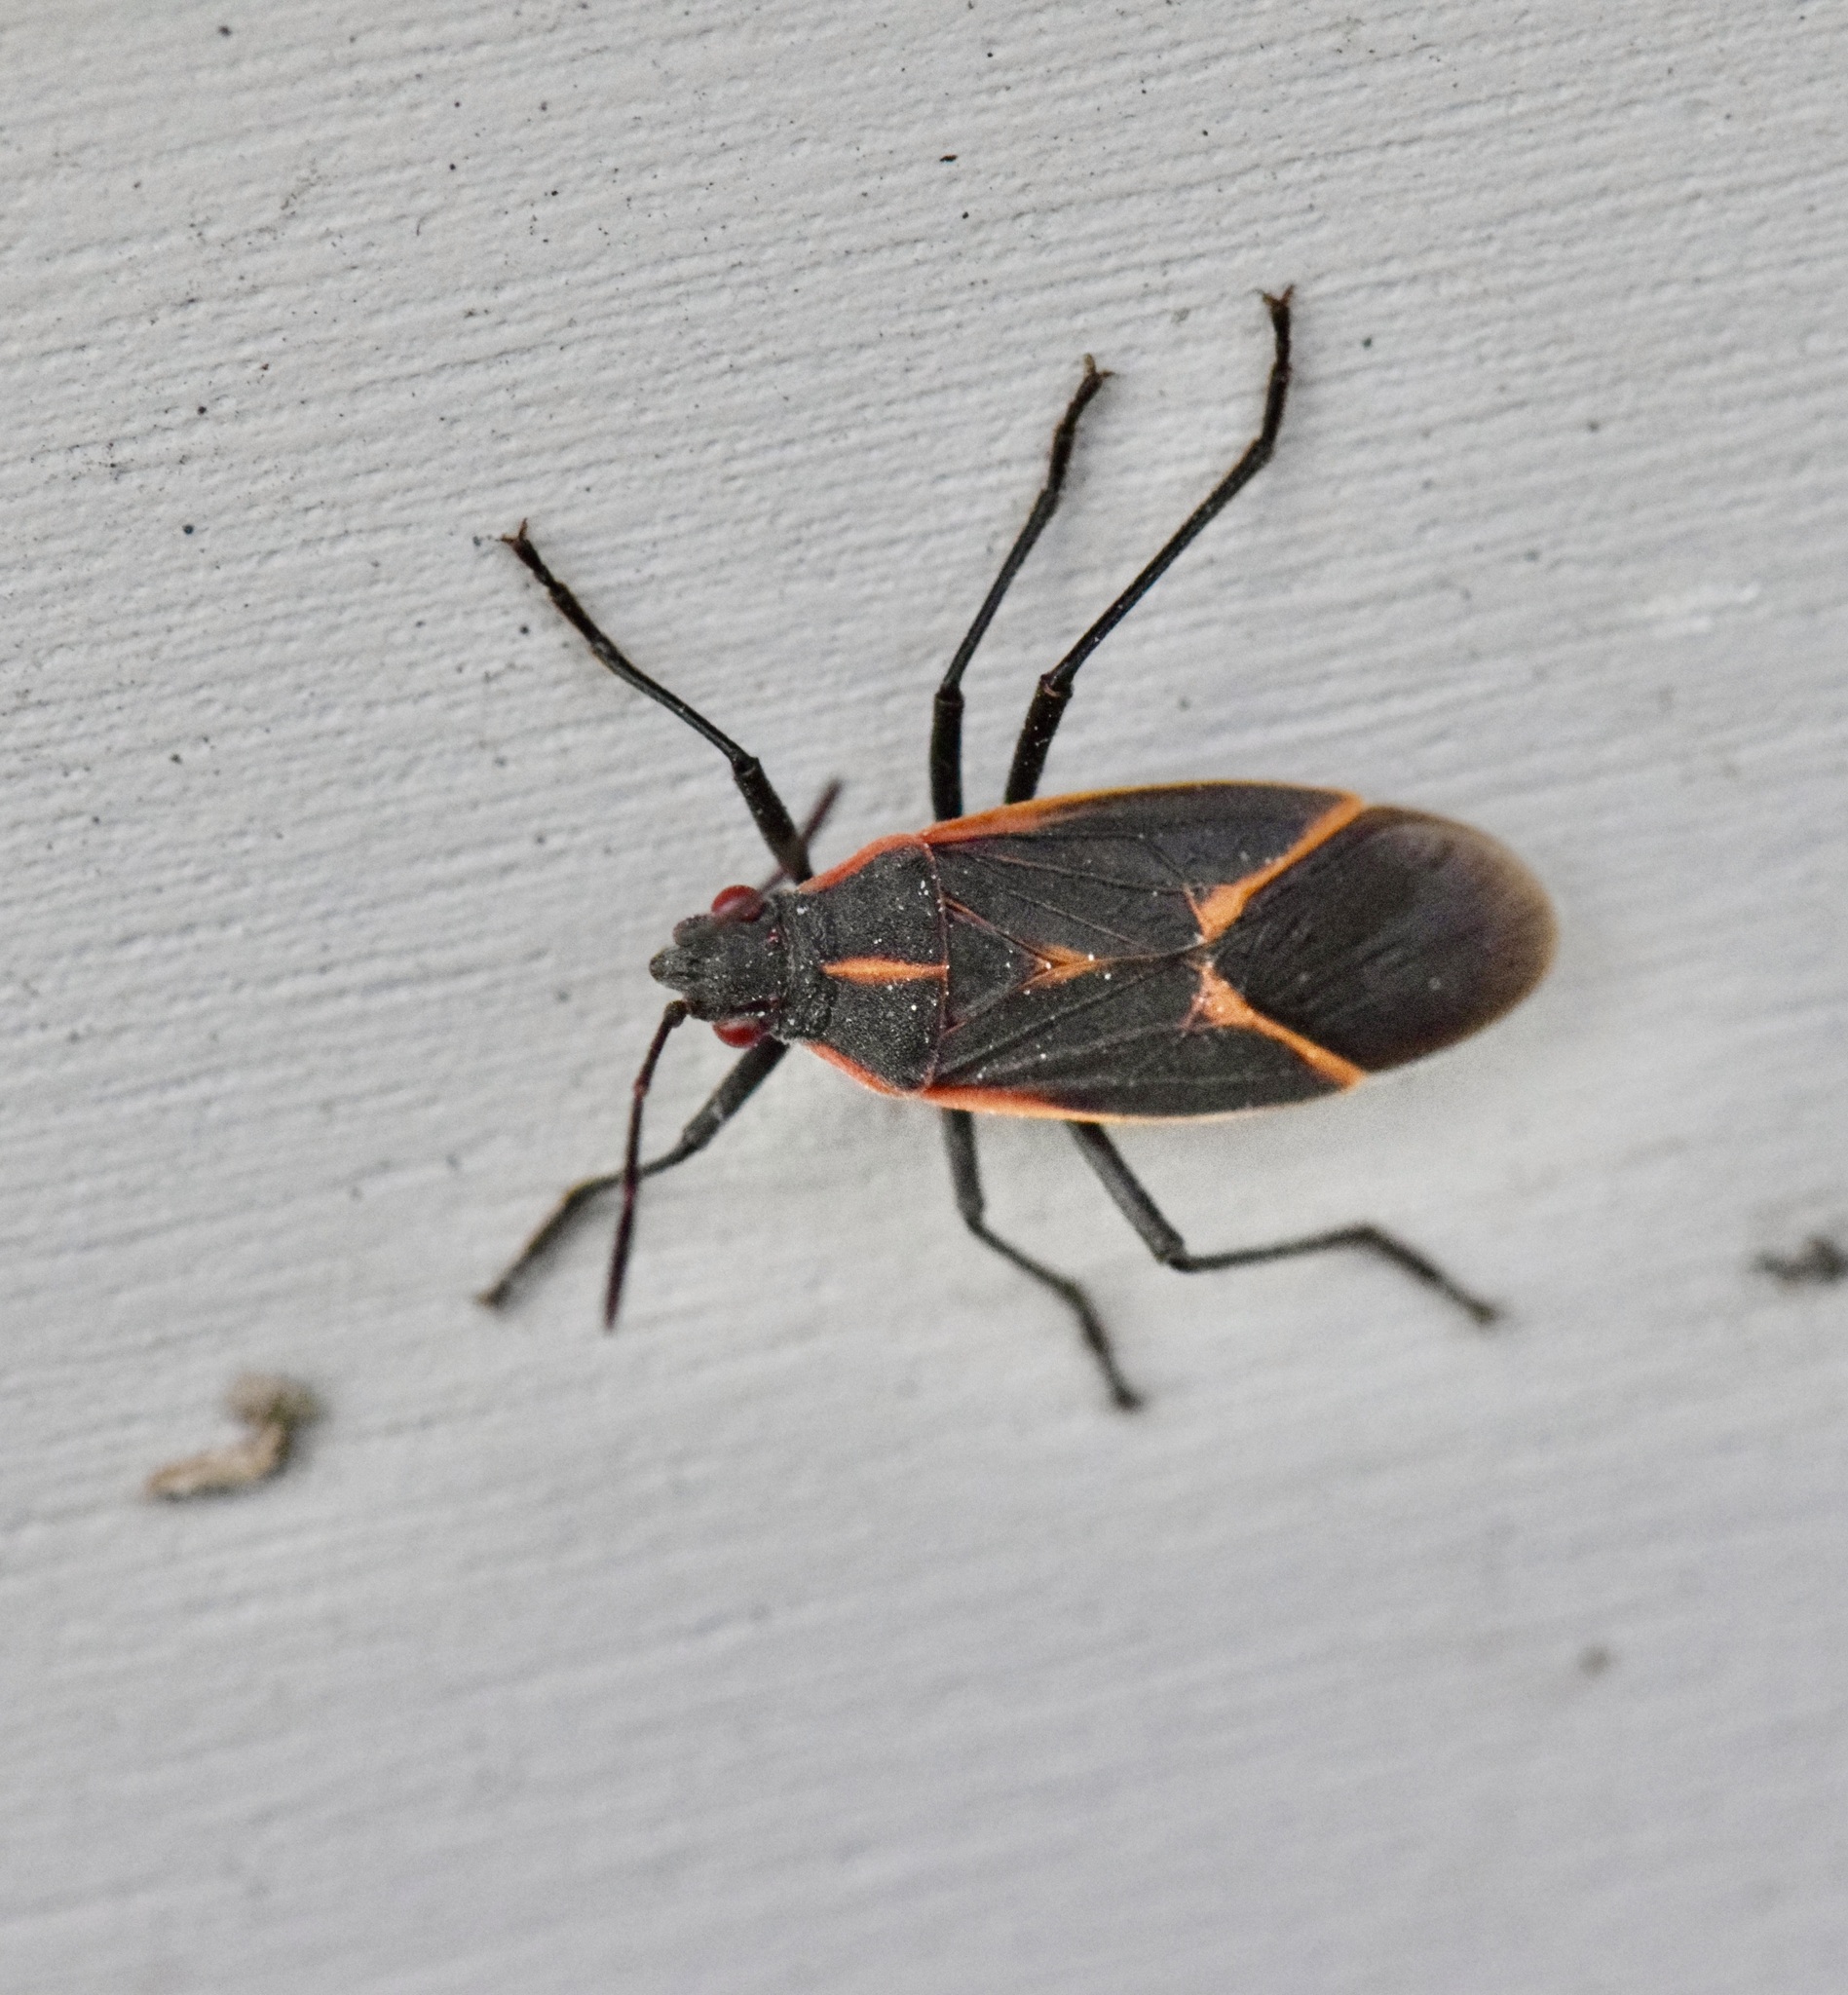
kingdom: Animalia
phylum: Arthropoda
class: Insecta
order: Hemiptera
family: Rhopalidae
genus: Boisea
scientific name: Boisea trivittata
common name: Boxelder bug
